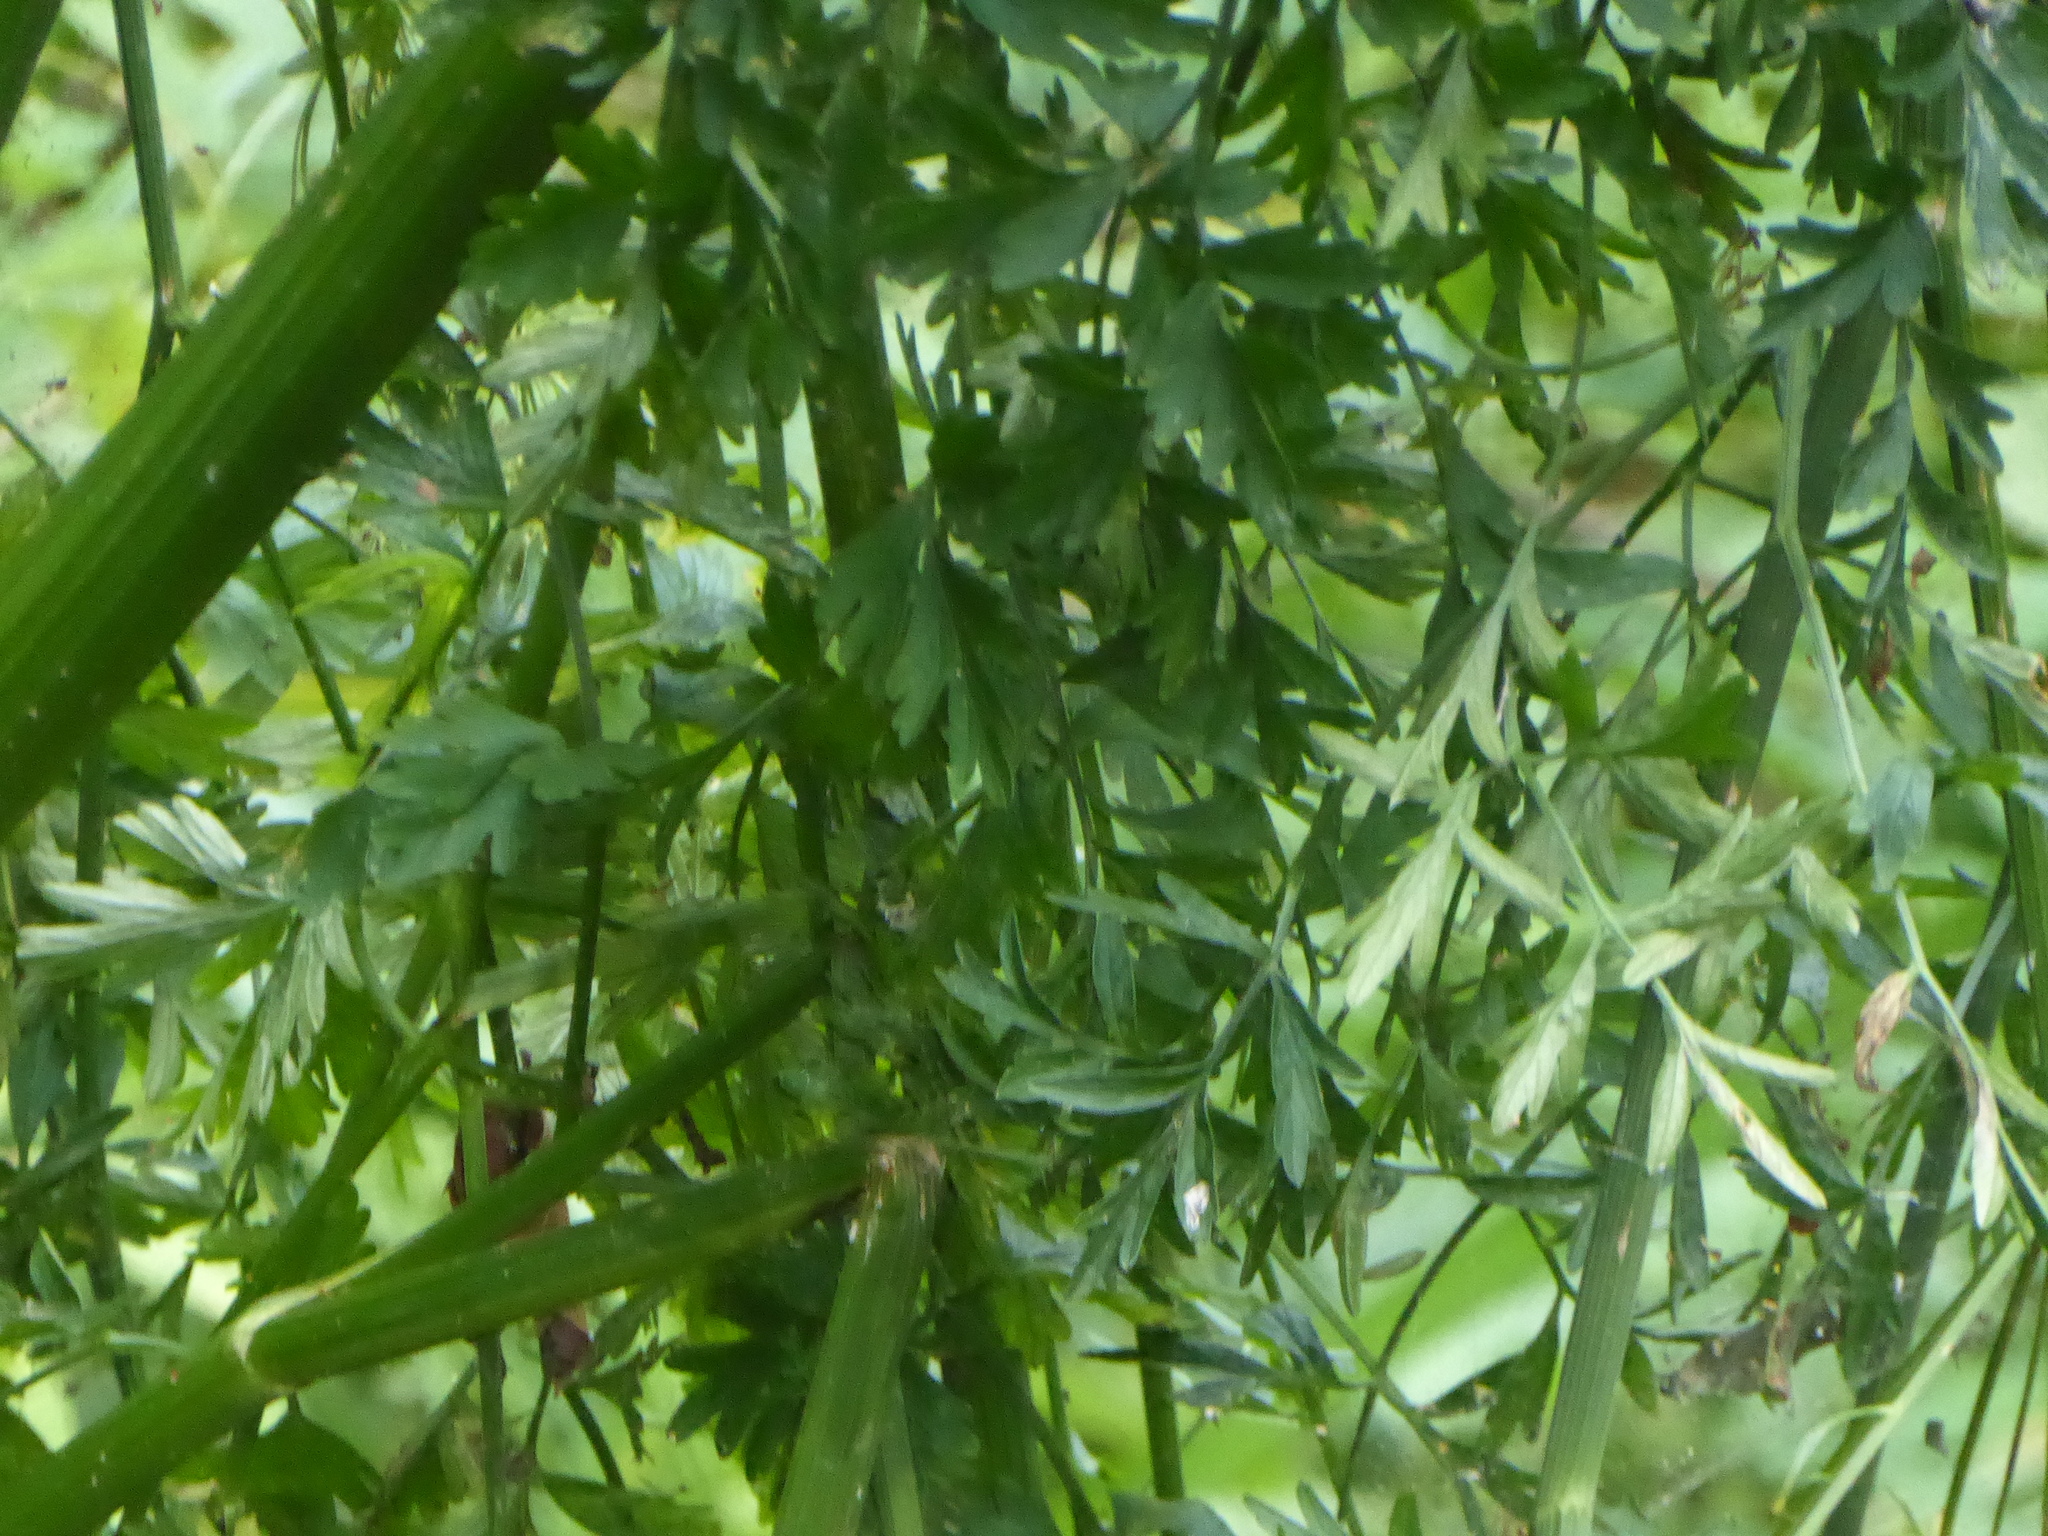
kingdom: Plantae
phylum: Tracheophyta
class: Magnoliopsida
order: Apiales
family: Apiaceae
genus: Oenanthe
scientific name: Oenanthe crocata
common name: Hemlock water-dropwort
